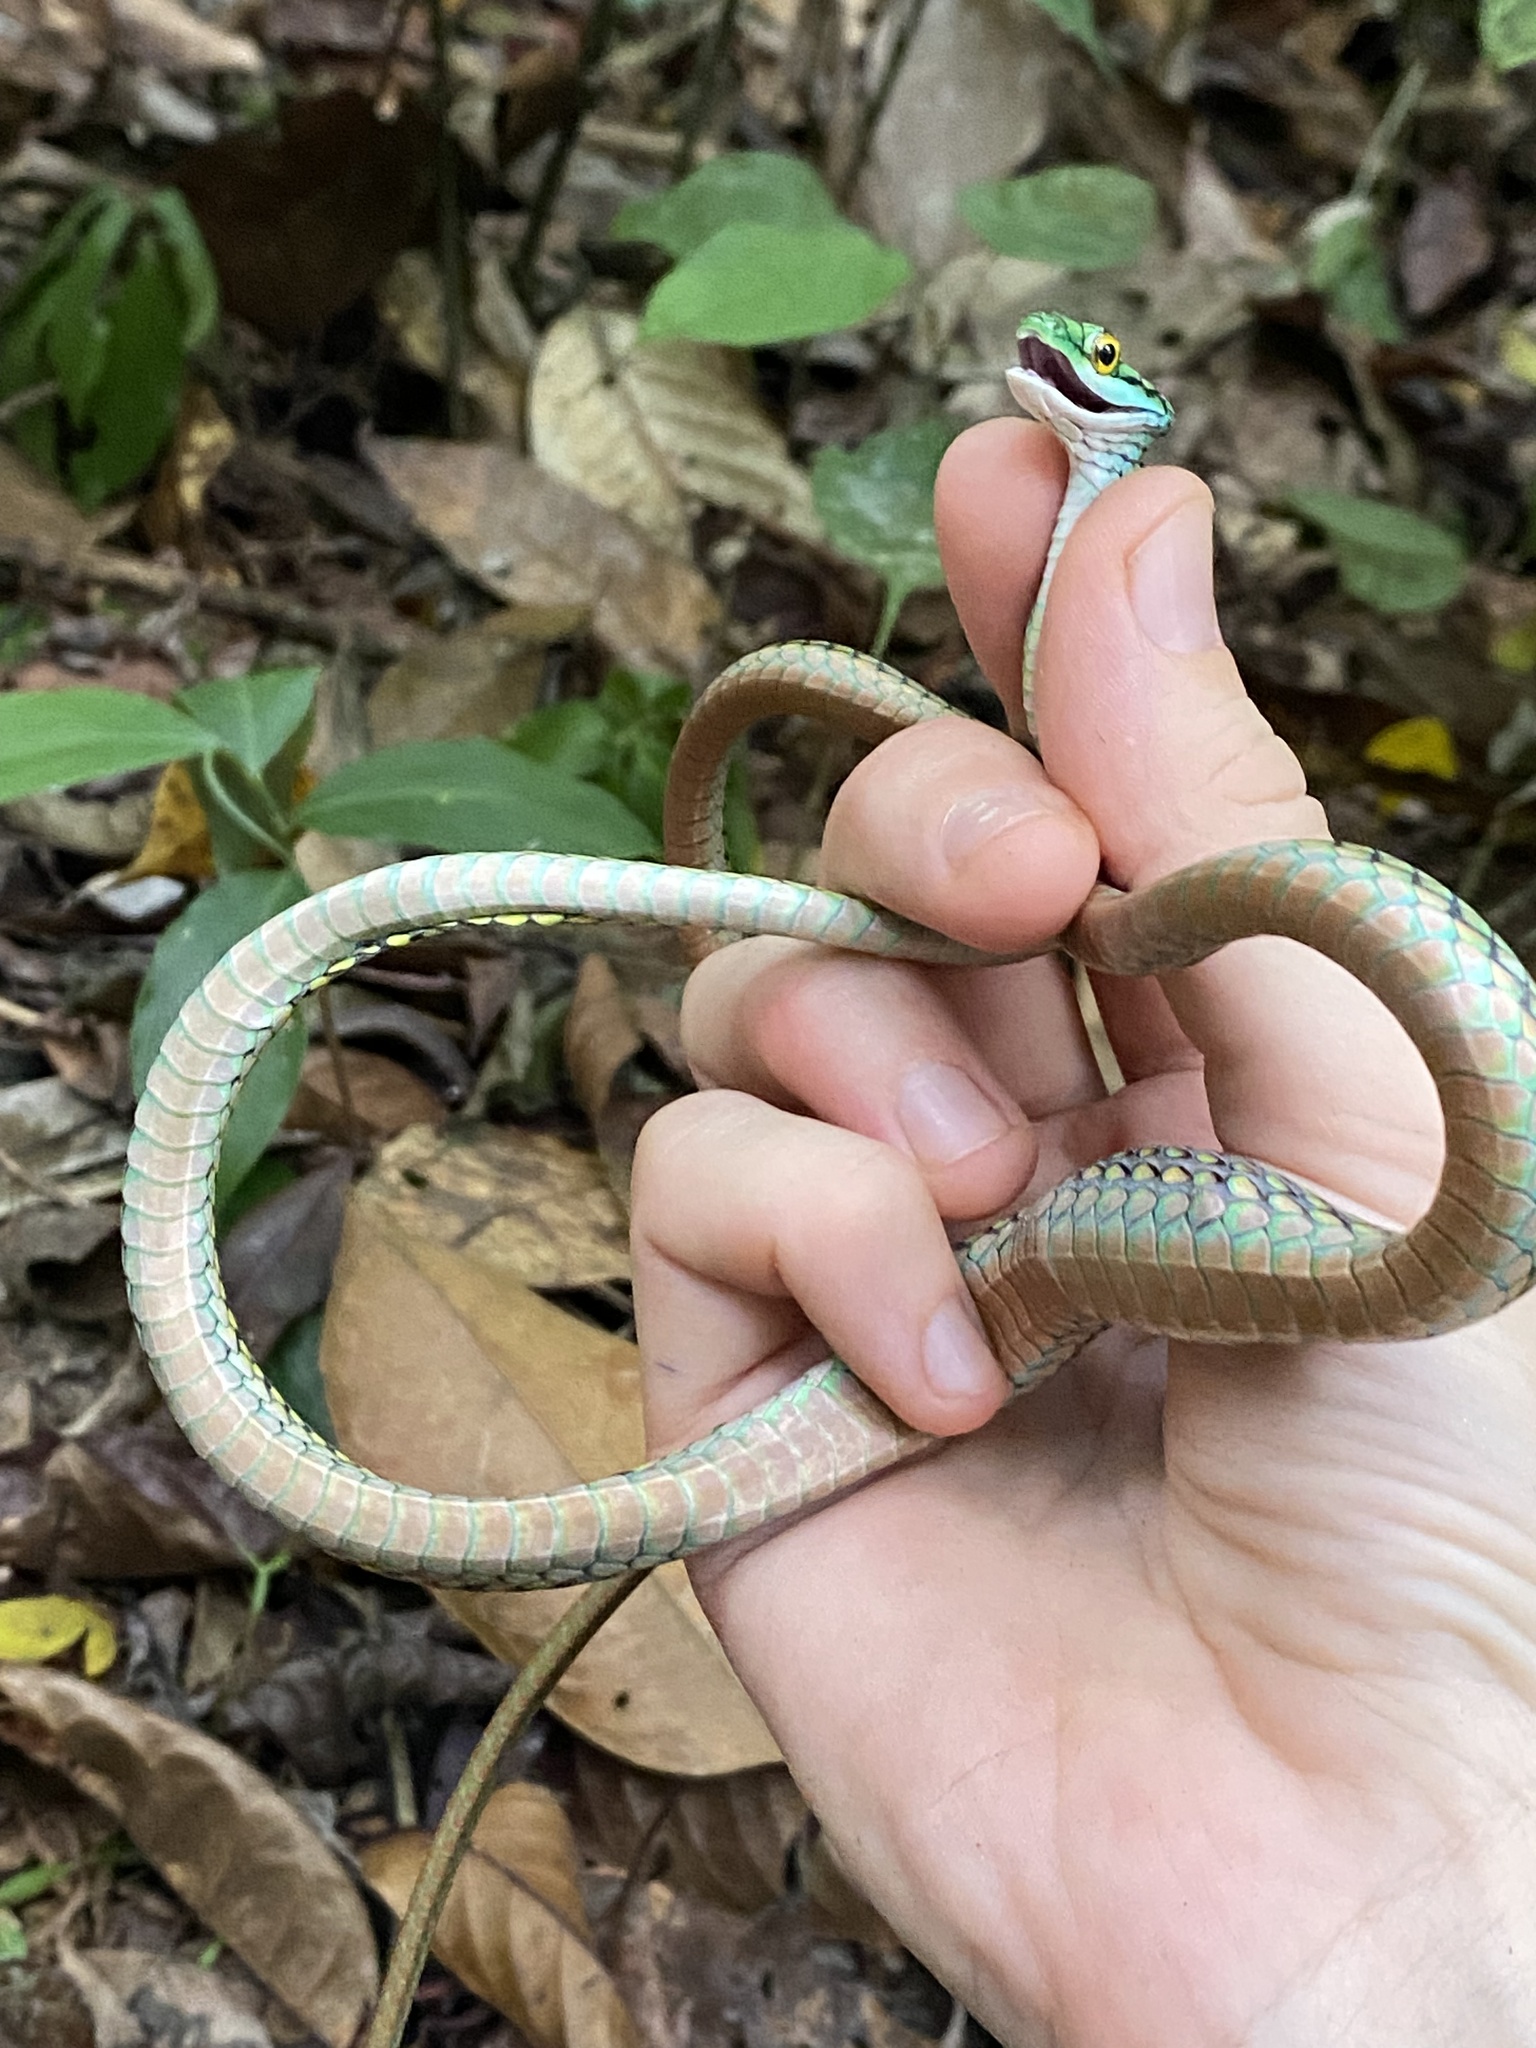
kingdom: Animalia
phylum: Chordata
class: Squamata
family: Colubridae
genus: Leptophis
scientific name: Leptophis ahaetulla
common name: Parrot snake
